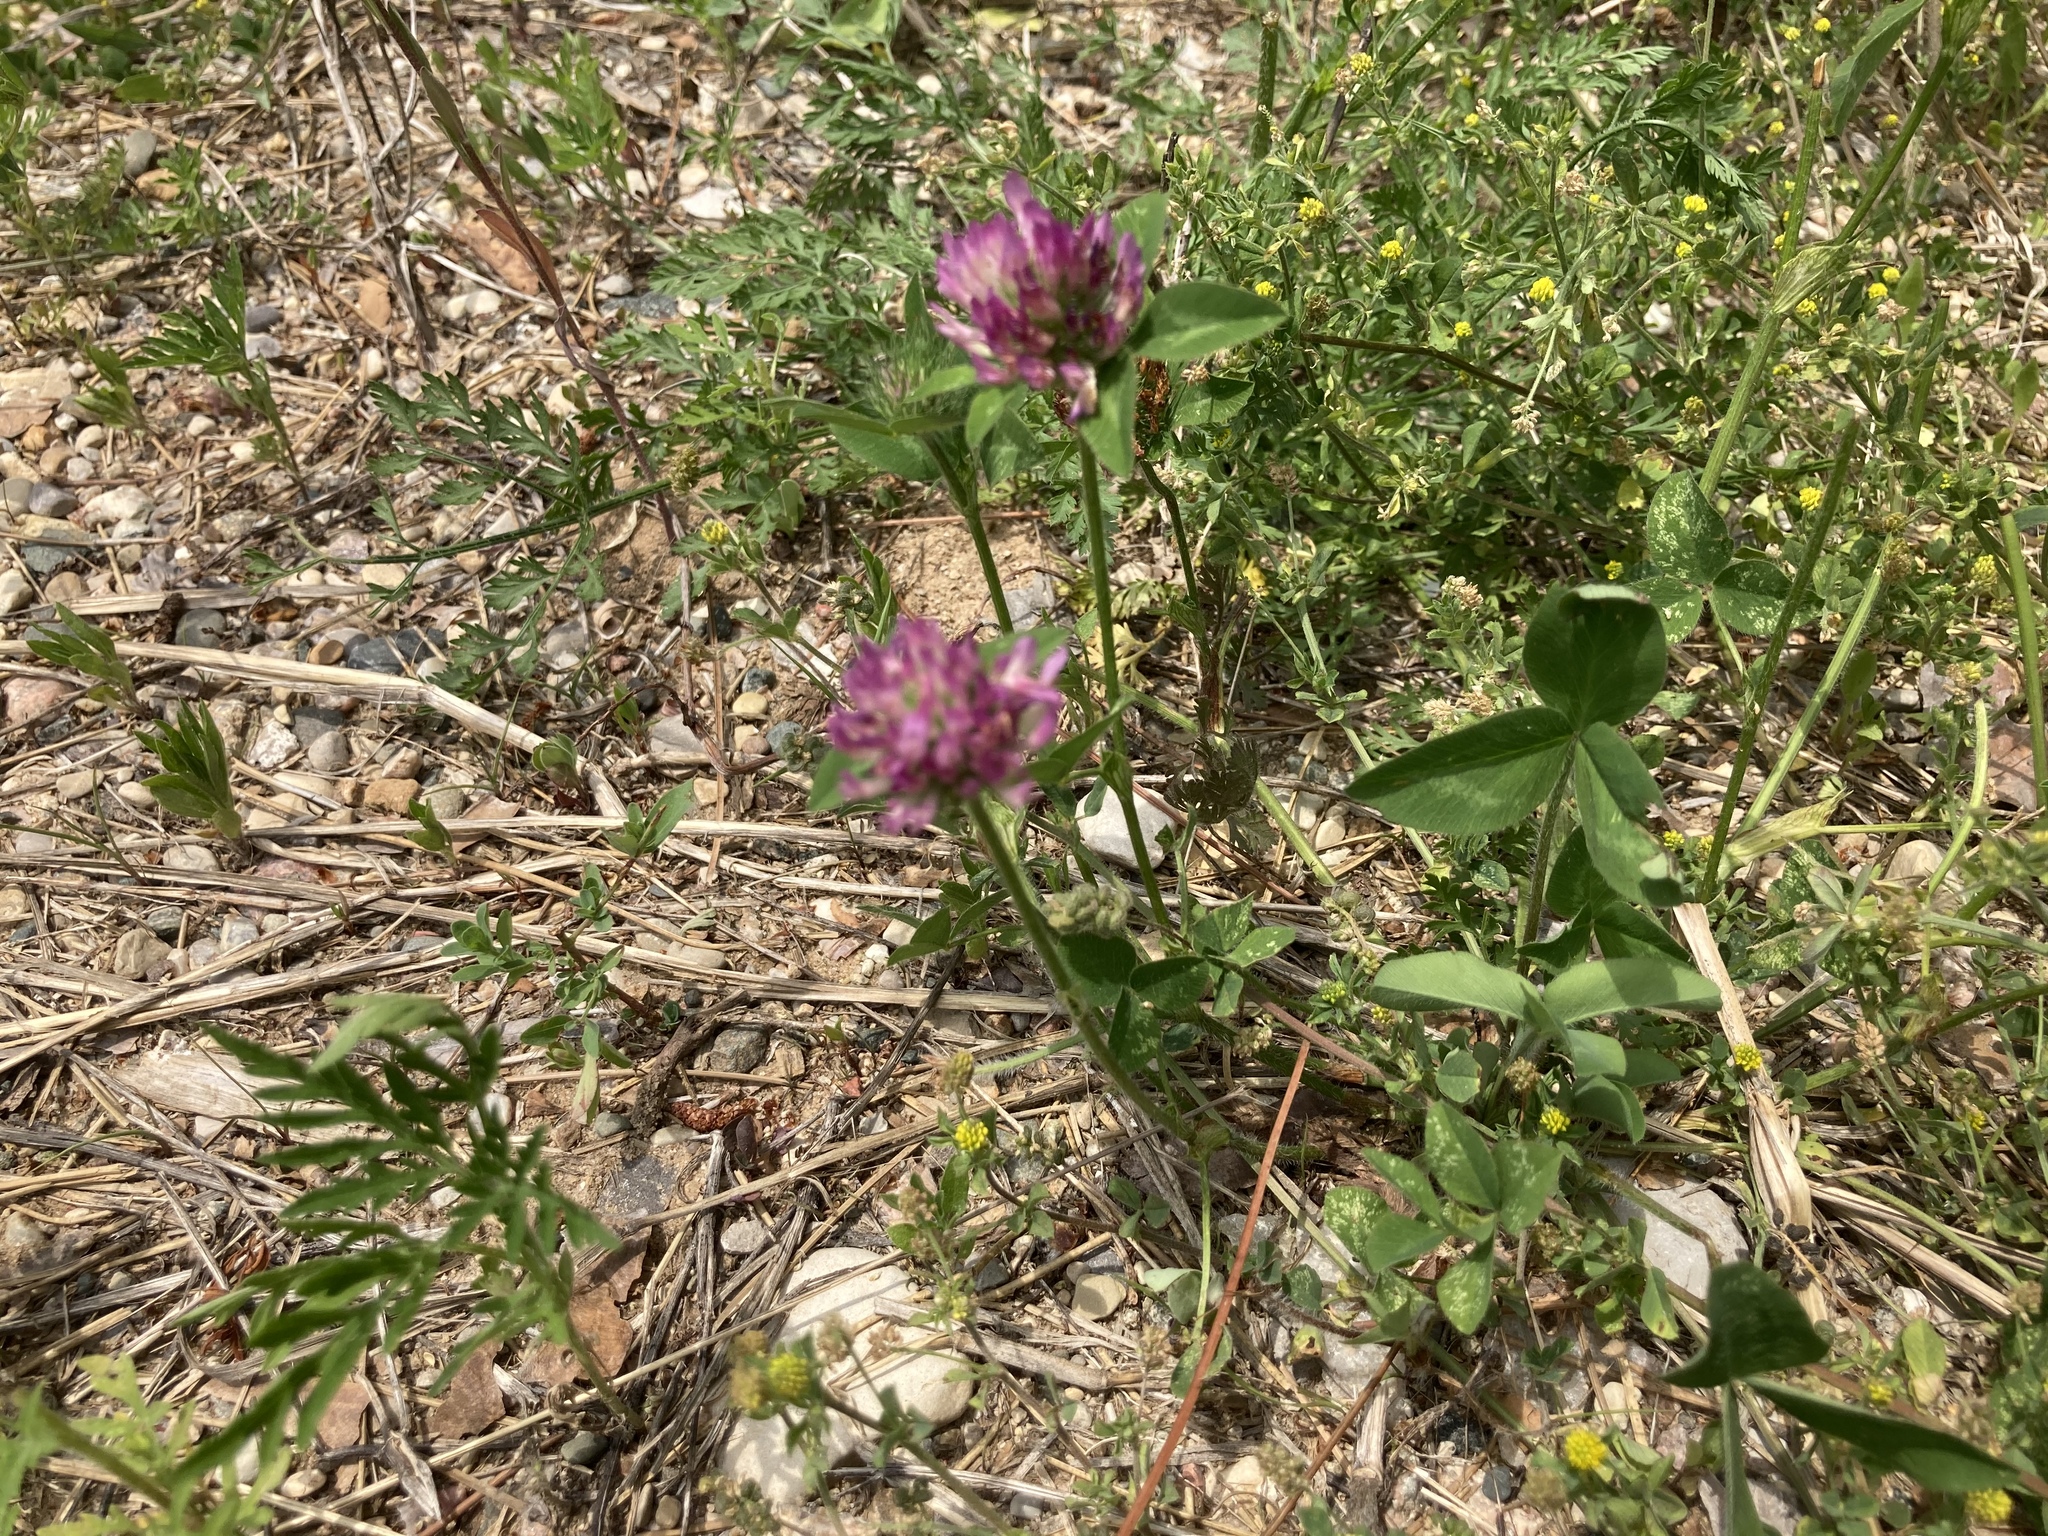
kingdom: Plantae
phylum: Tracheophyta
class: Magnoliopsida
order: Fabales
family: Fabaceae
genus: Trifolium
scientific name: Trifolium pratense
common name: Red clover
